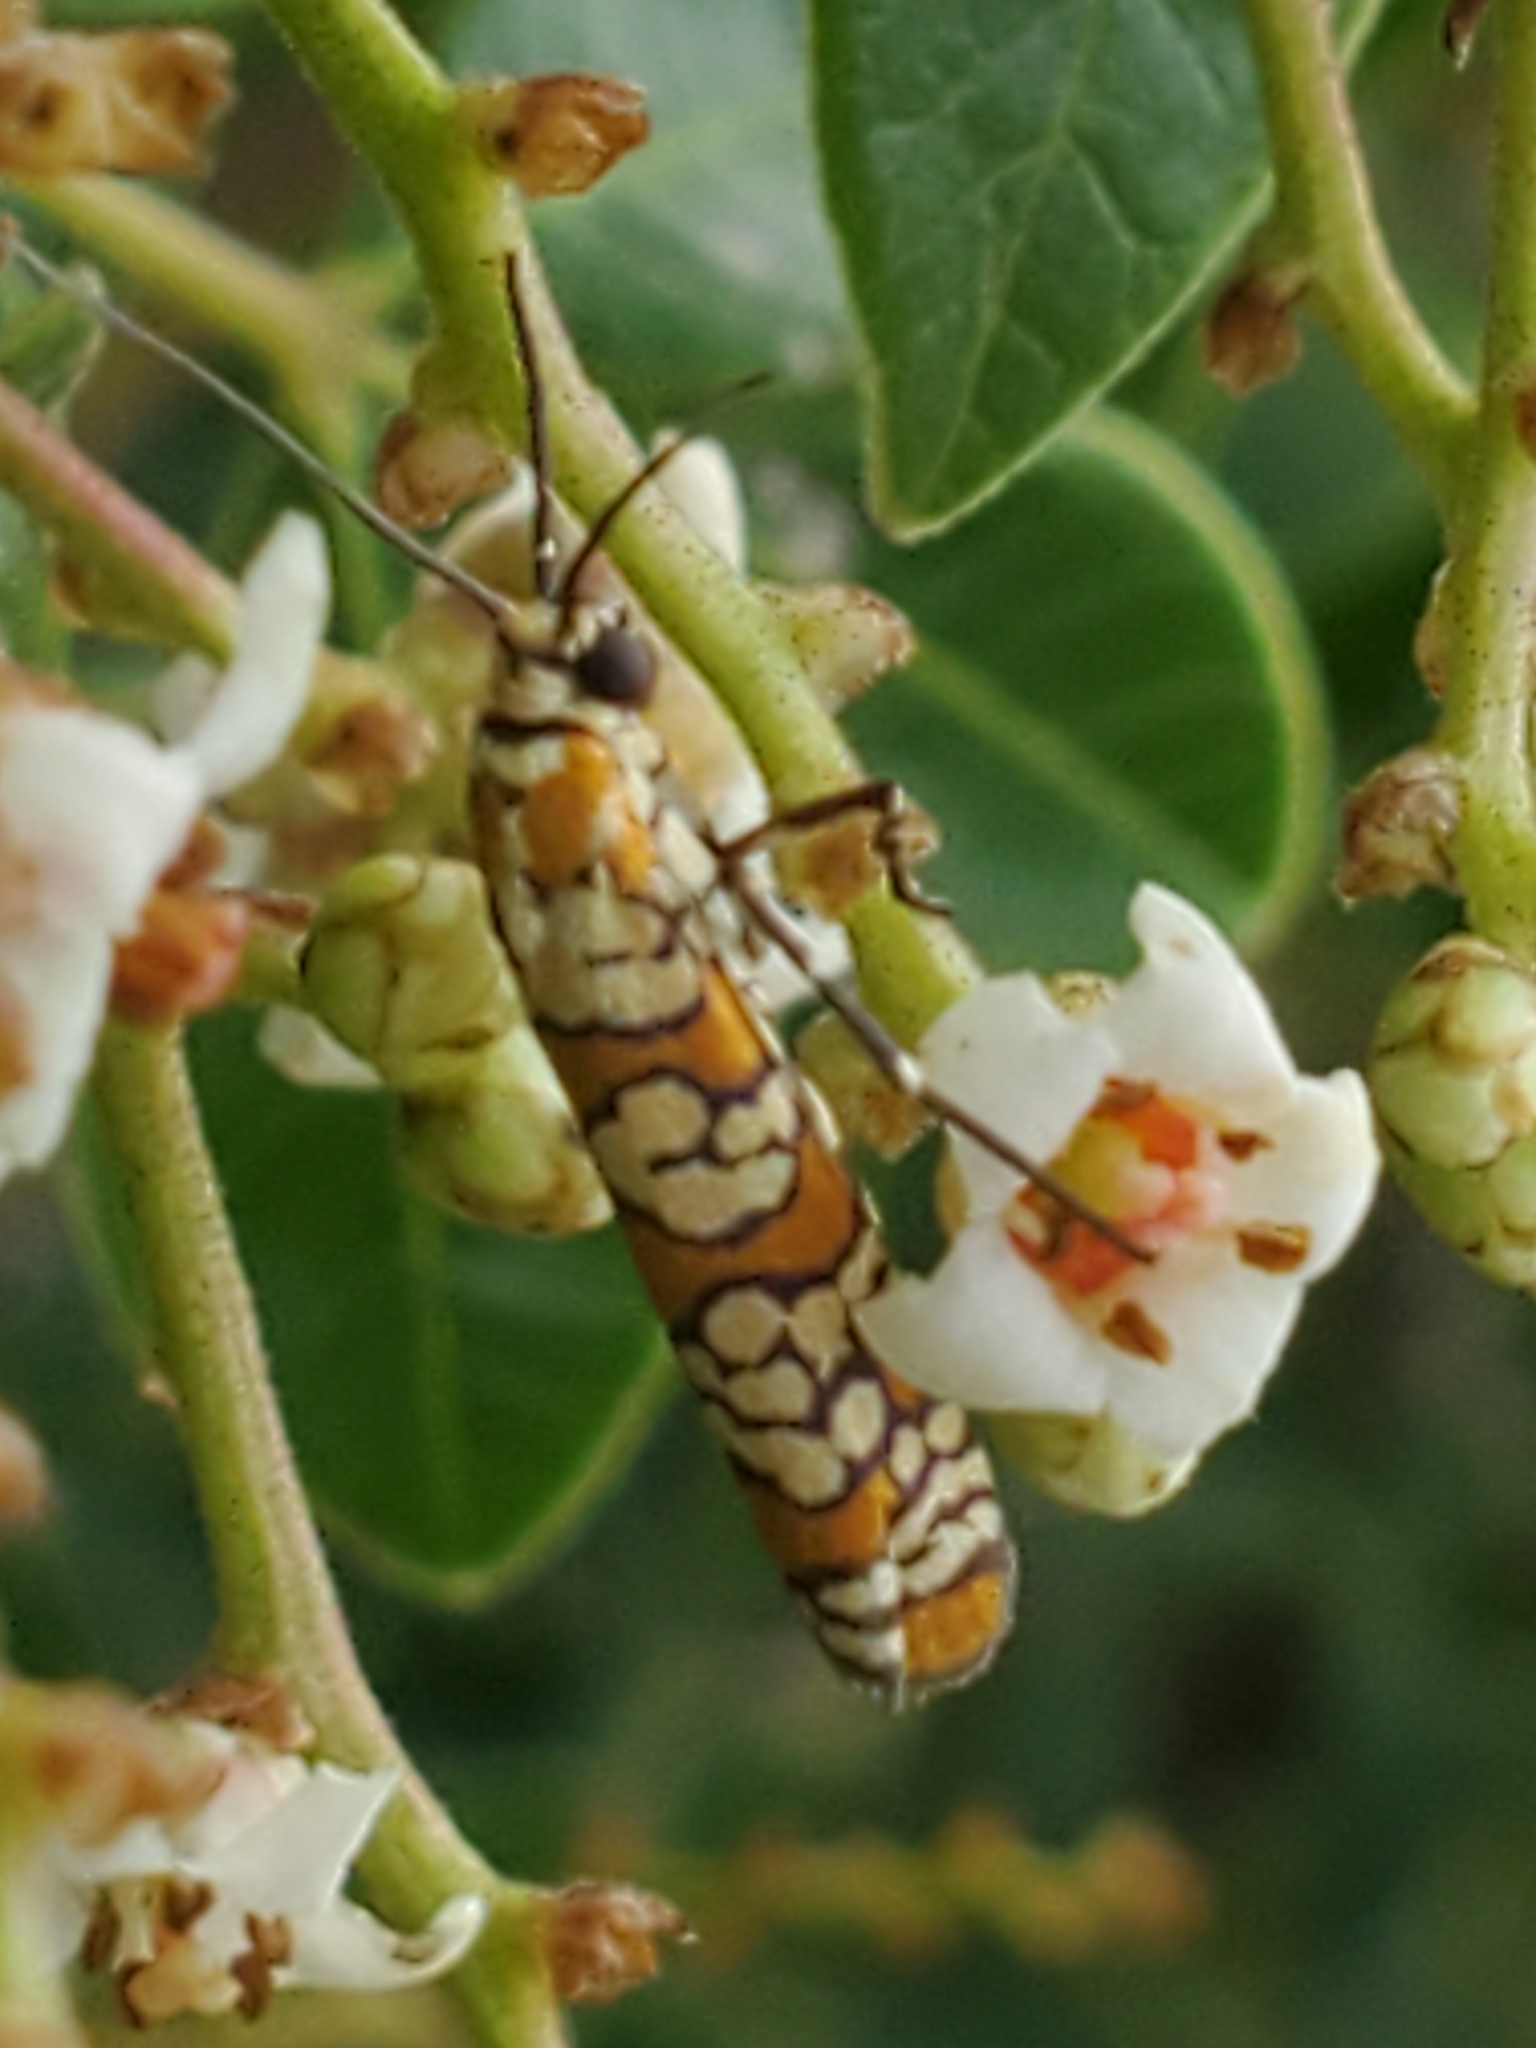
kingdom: Animalia
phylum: Arthropoda
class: Insecta
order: Lepidoptera
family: Attevidae
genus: Atteva
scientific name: Atteva punctella
